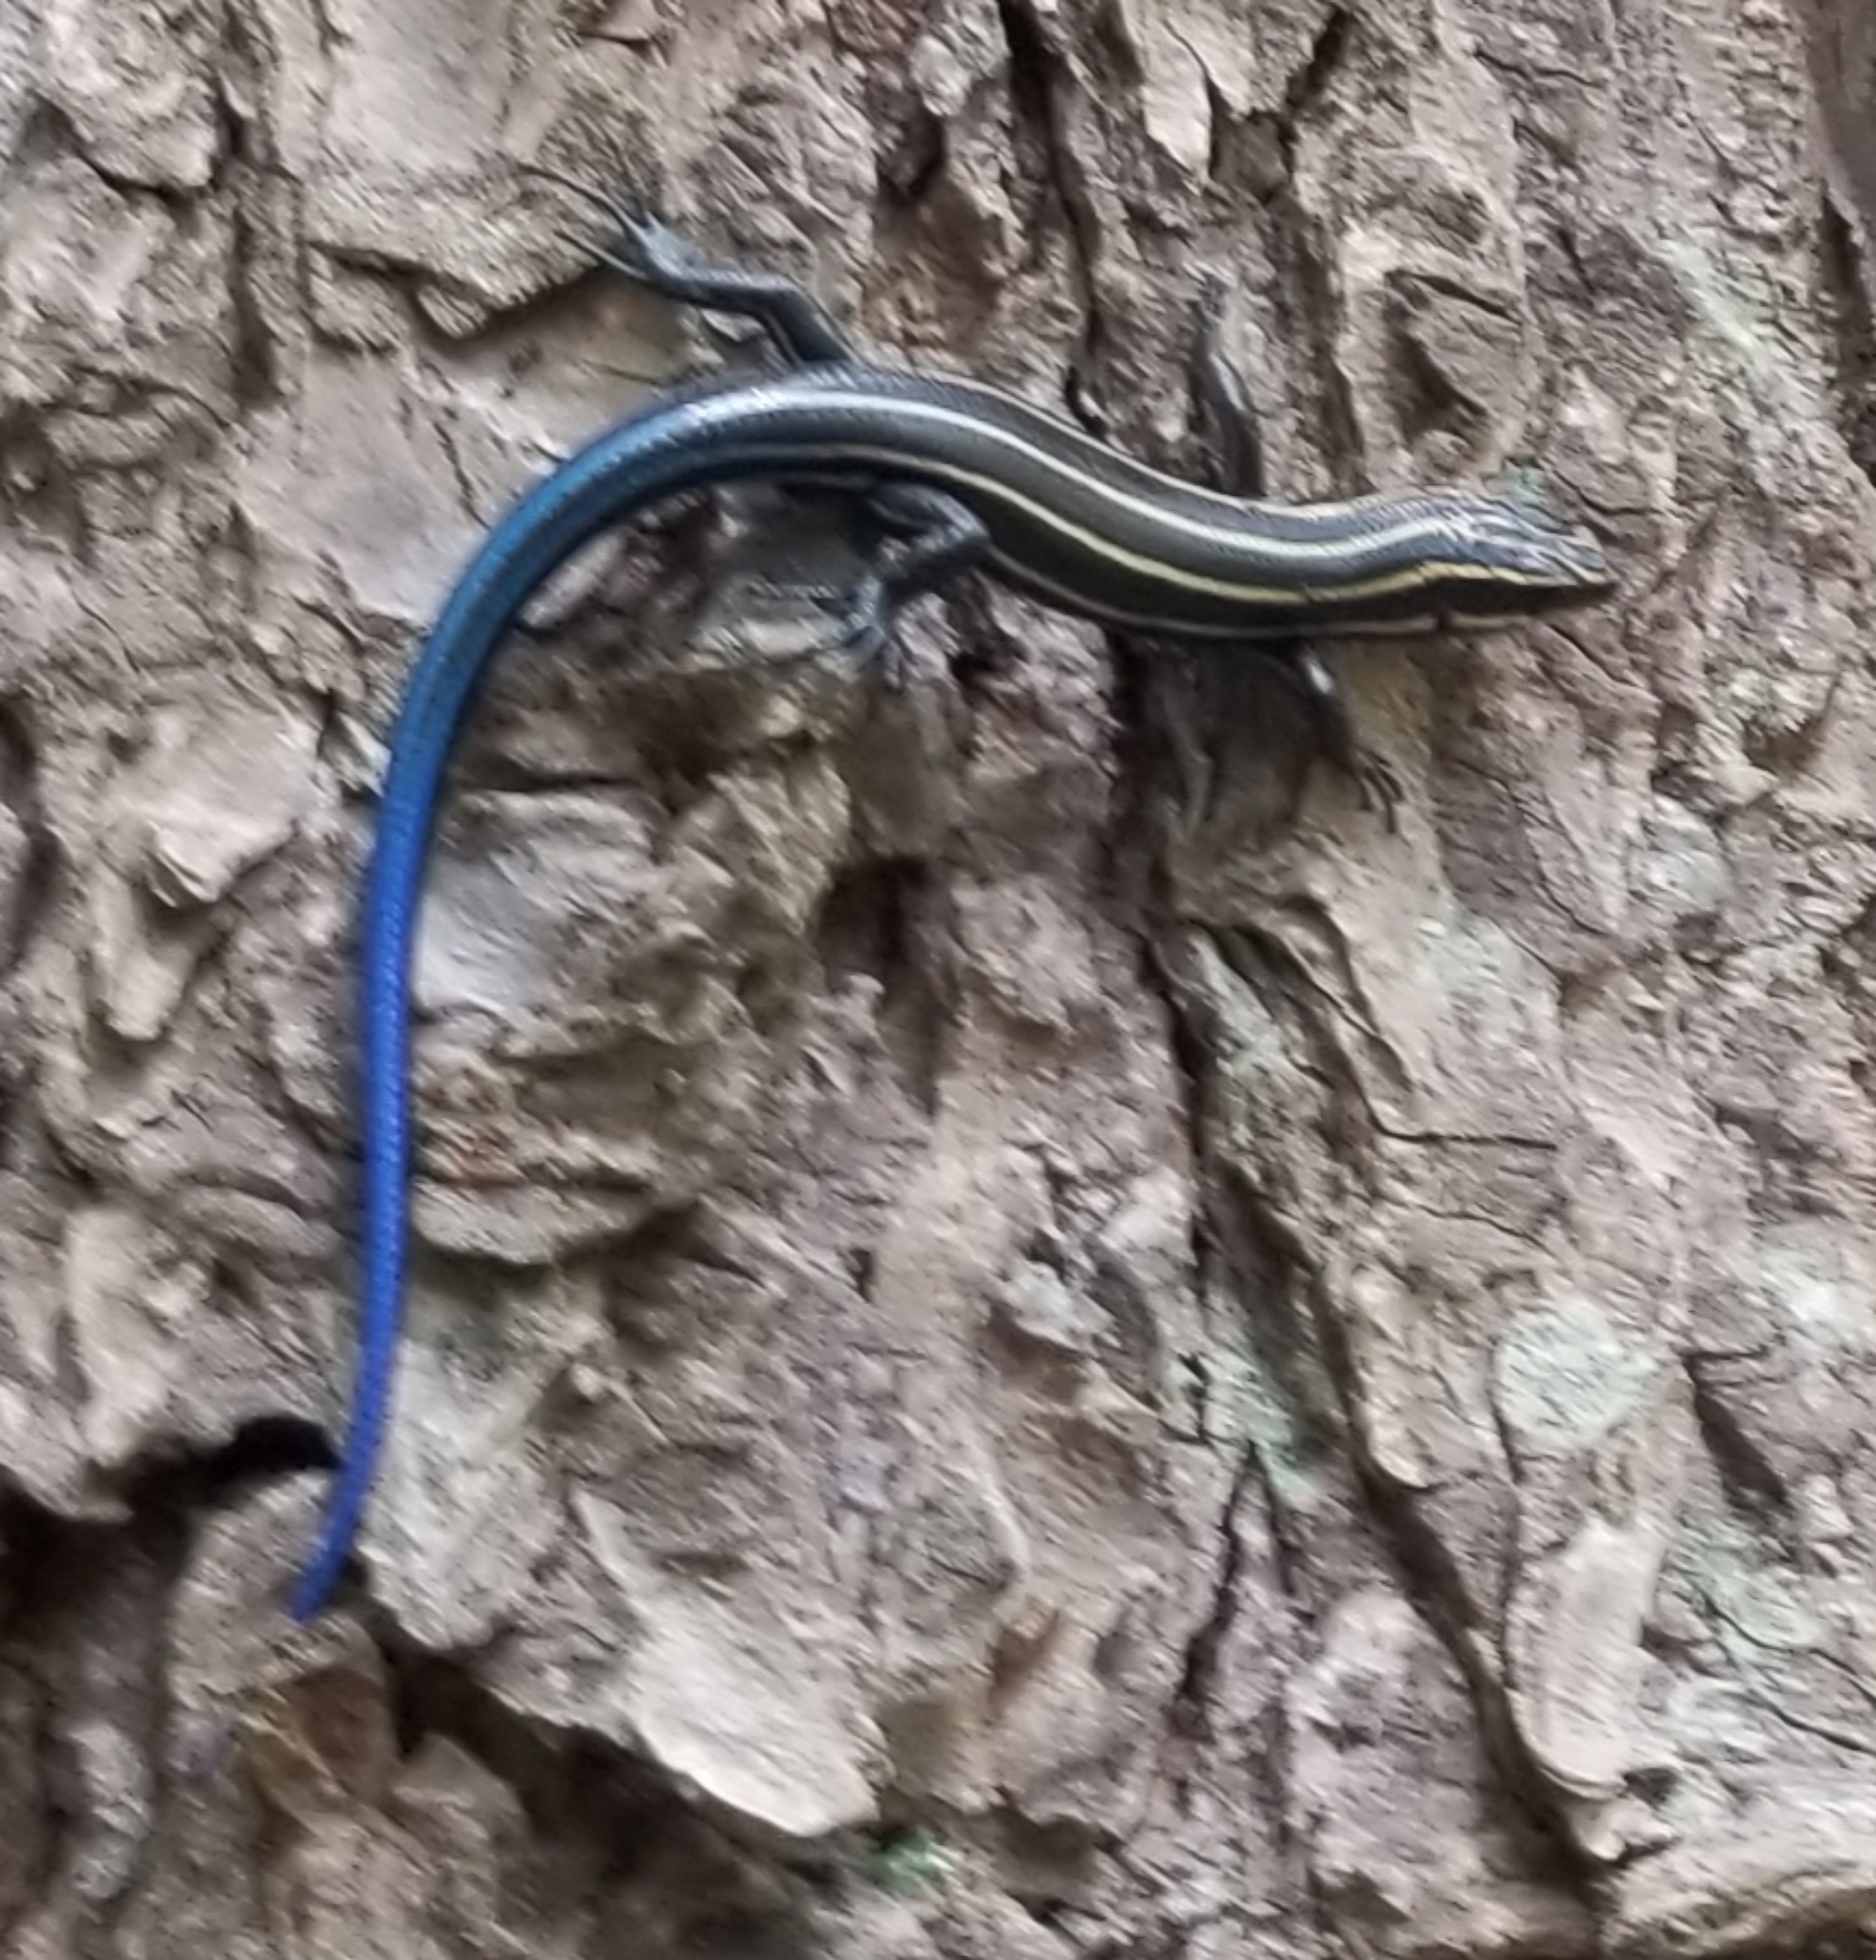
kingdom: Animalia
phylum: Chordata
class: Squamata
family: Scincidae
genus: Plestiodon
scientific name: Plestiodon fasciatus
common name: Five-lined skink
